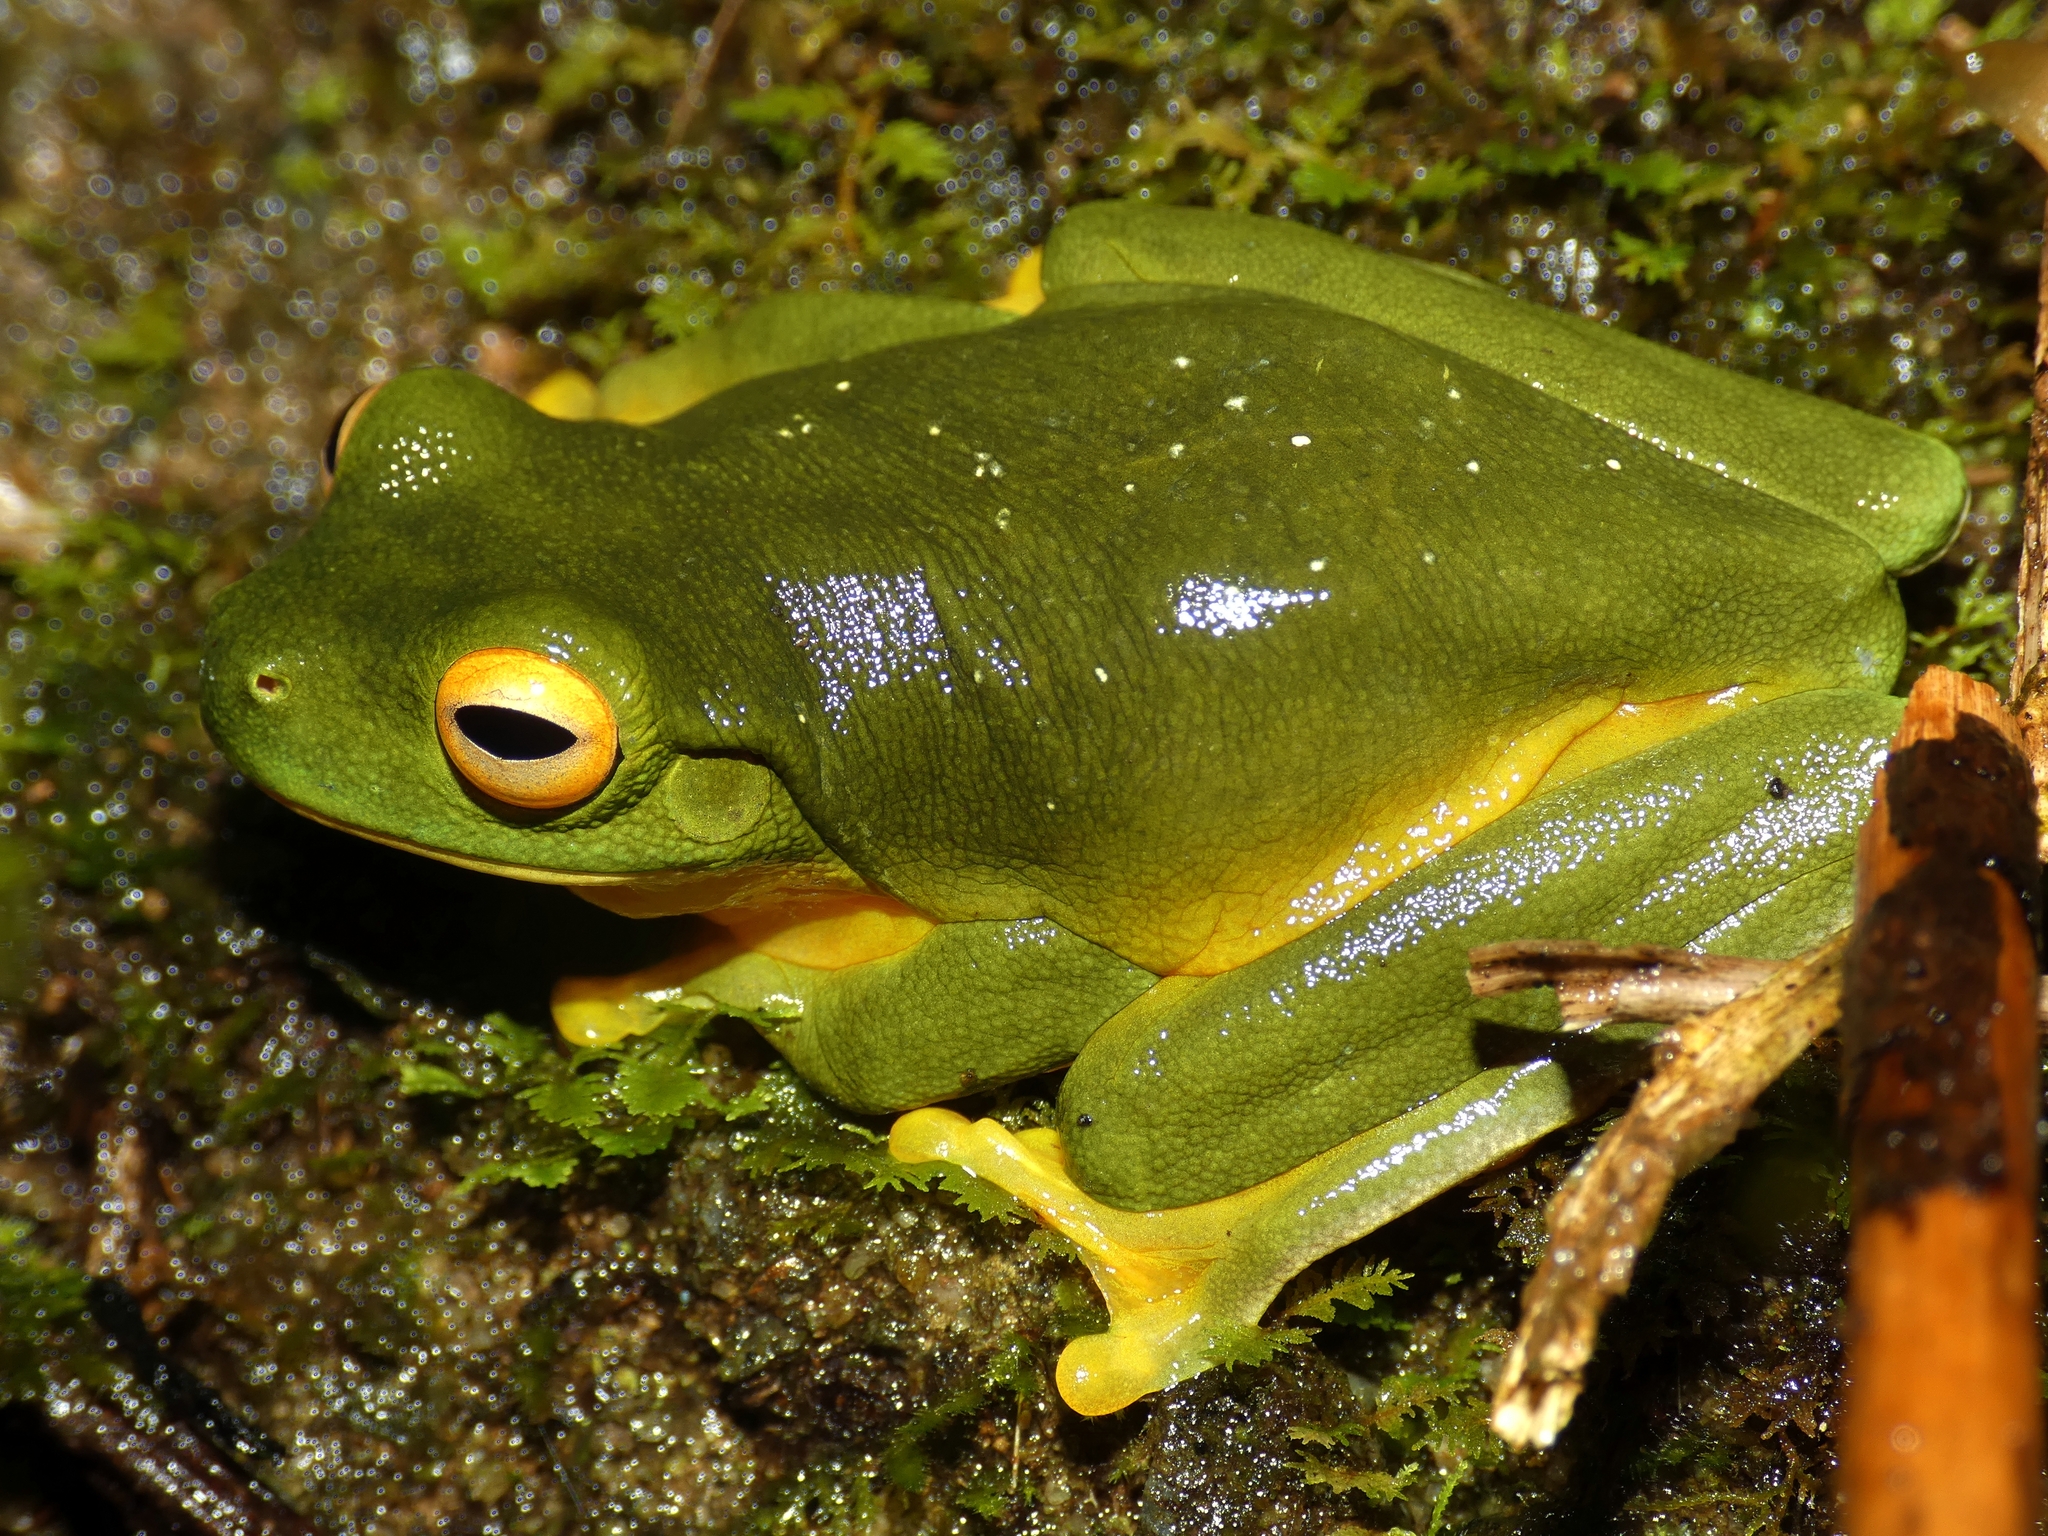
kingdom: Animalia
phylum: Chordata
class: Amphibia
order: Anura
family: Pelodryadidae
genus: Ranoidea
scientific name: Ranoidea xanthomera
